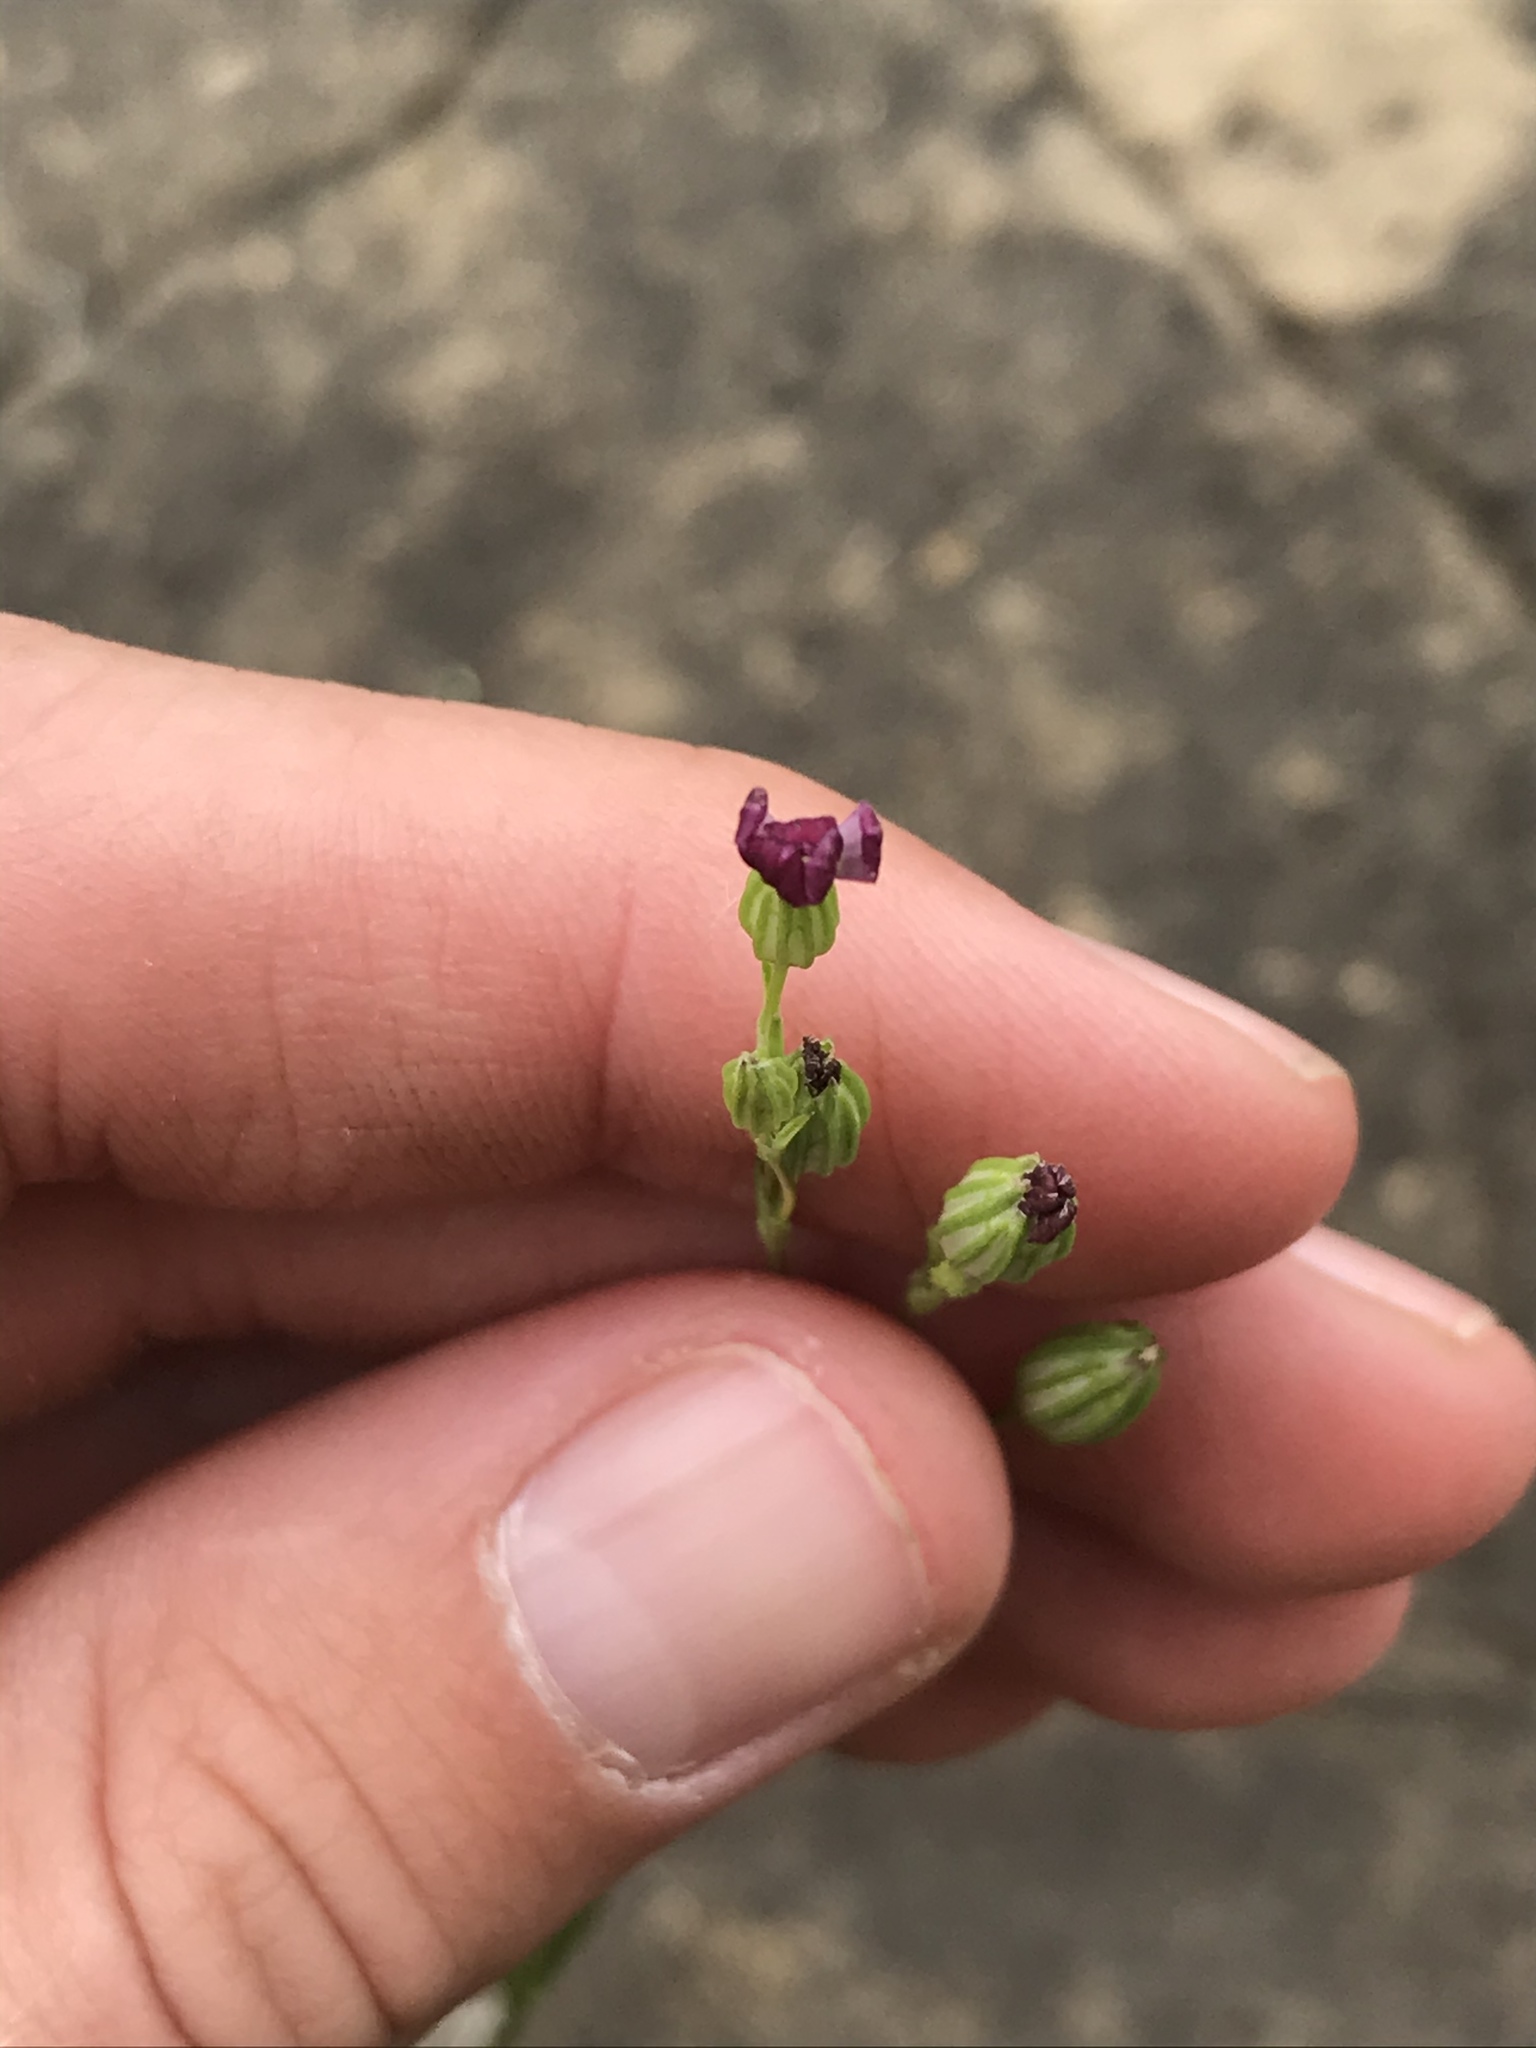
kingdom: Plantae
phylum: Tracheophyta
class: Magnoliopsida
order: Caryophyllales
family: Caryophyllaceae
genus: Silene
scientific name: Silene antirrhina
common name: Sleepy catchfly
